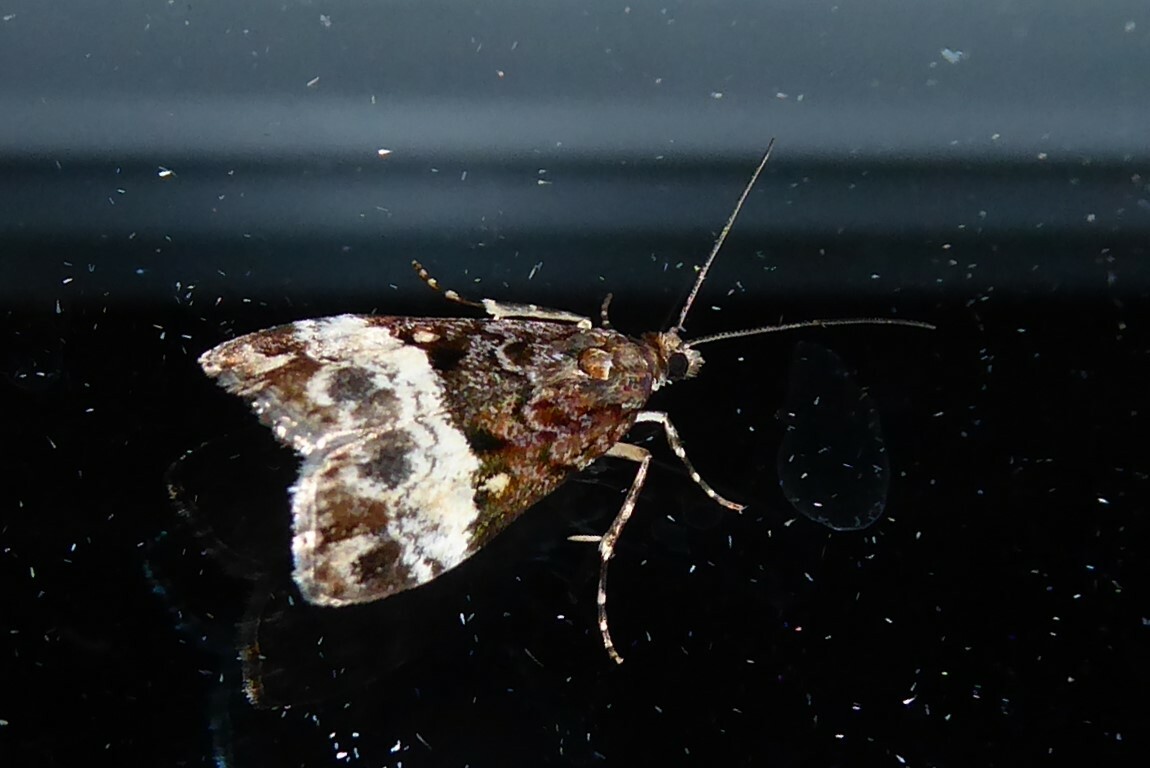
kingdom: Animalia
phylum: Arthropoda
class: Insecta
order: Lepidoptera
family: Crambidae
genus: Scoparia
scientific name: Scoparia minusculalis
